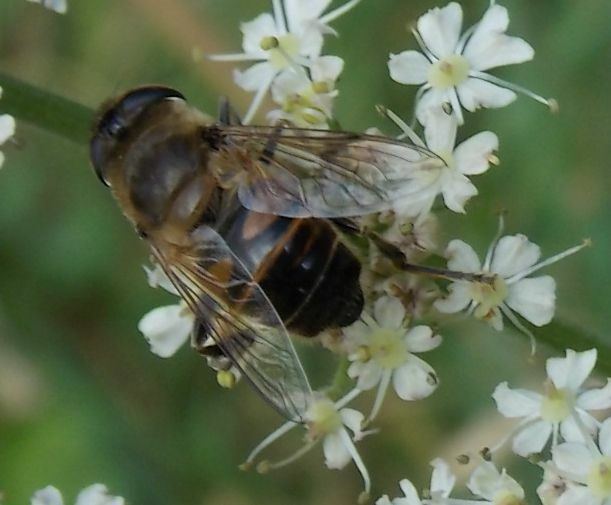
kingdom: Animalia
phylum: Arthropoda
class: Insecta
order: Diptera
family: Syrphidae
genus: Eristalis
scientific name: Eristalis tenax
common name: Drone fly
